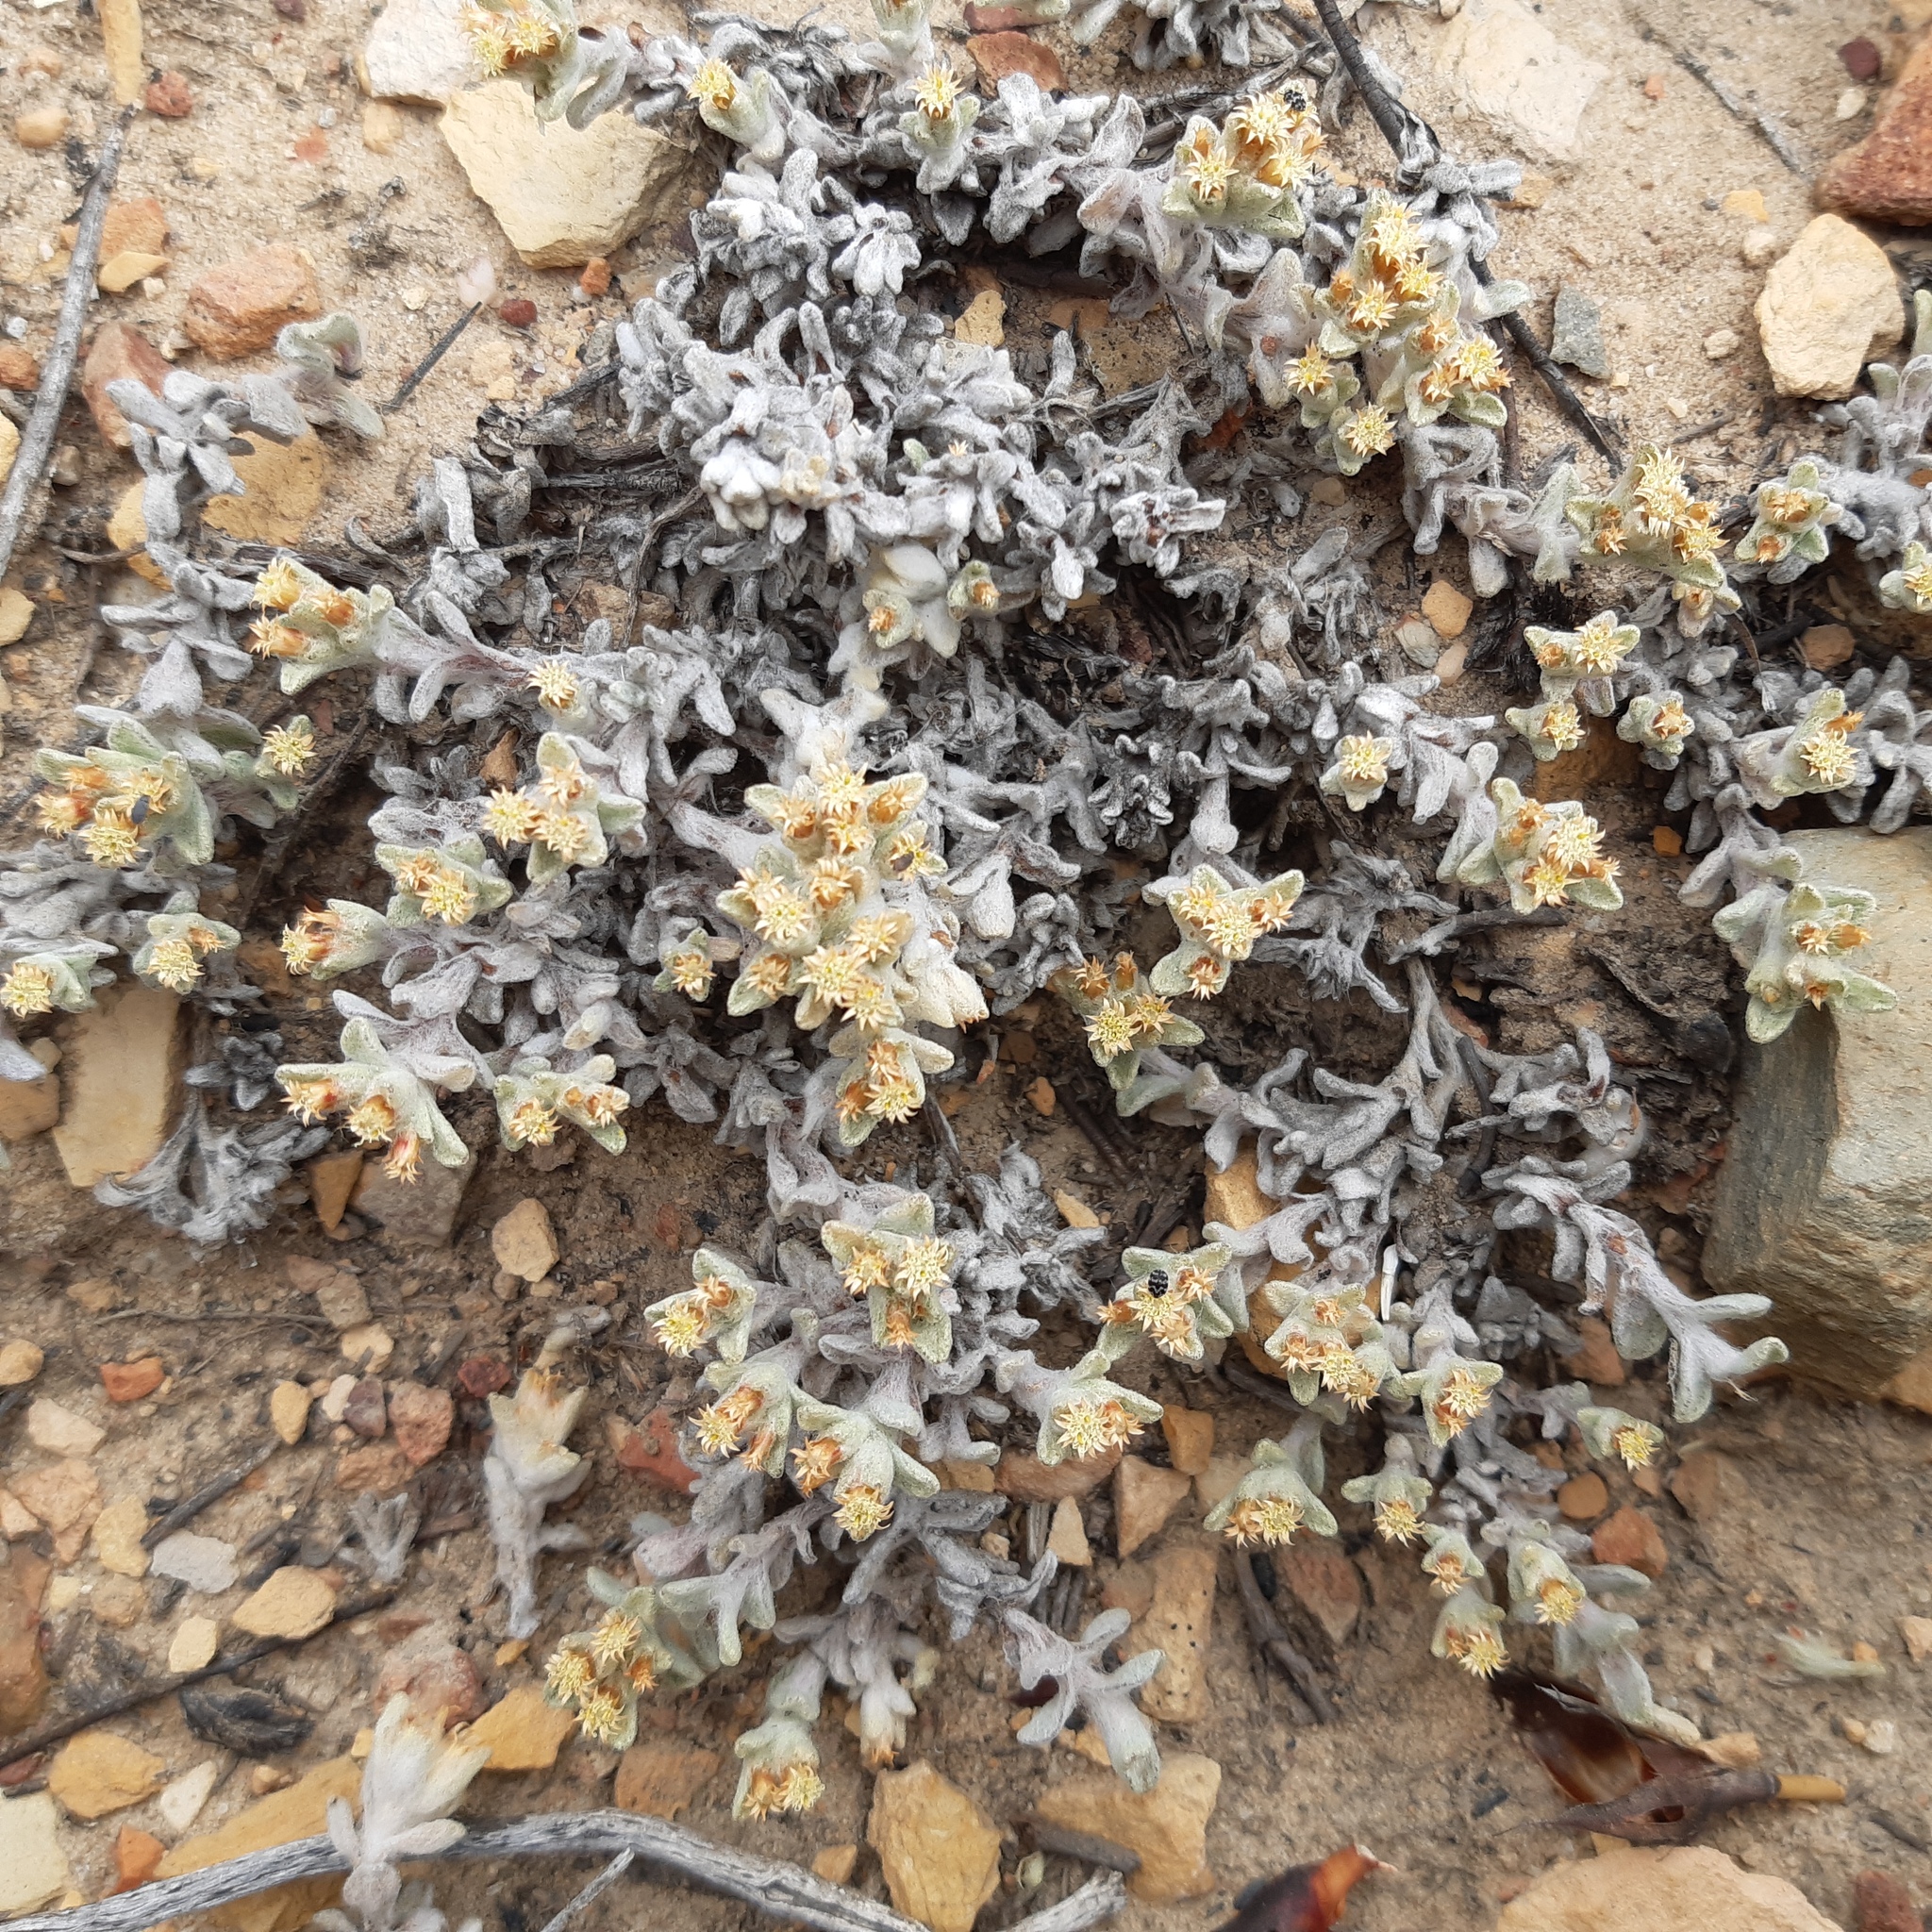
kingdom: Plantae
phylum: Tracheophyta
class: Magnoliopsida
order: Asterales
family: Asteraceae
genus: Helichrysum
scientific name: Helichrysum tinctum
